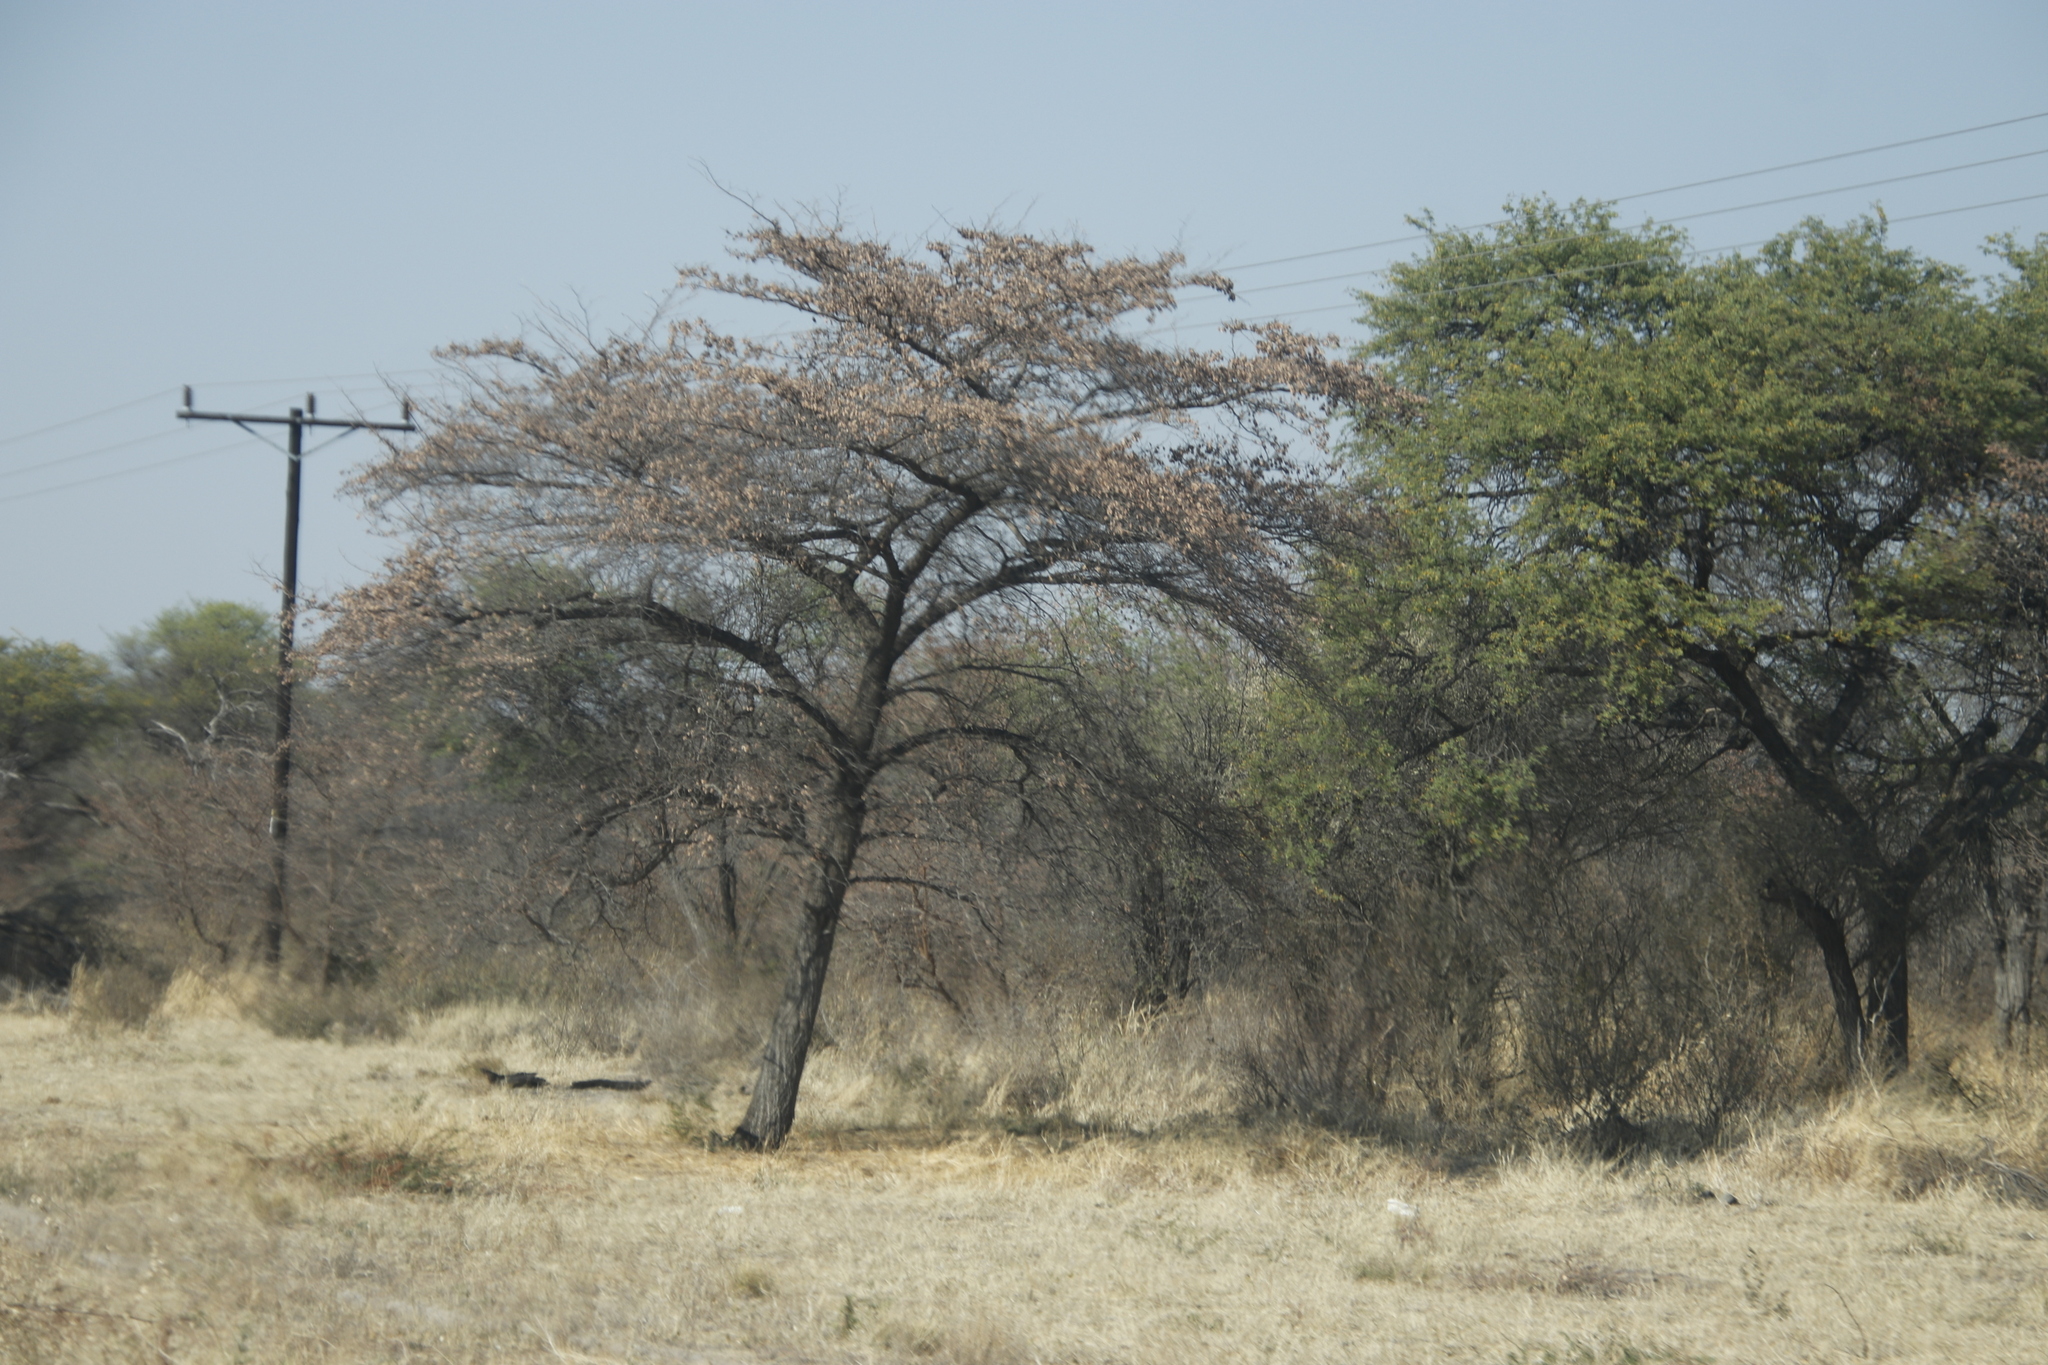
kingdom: Plantae
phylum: Tracheophyta
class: Magnoliopsida
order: Myrtales
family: Combretaceae
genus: Terminalia
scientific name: Terminalia sericea
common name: Clusterleaf
